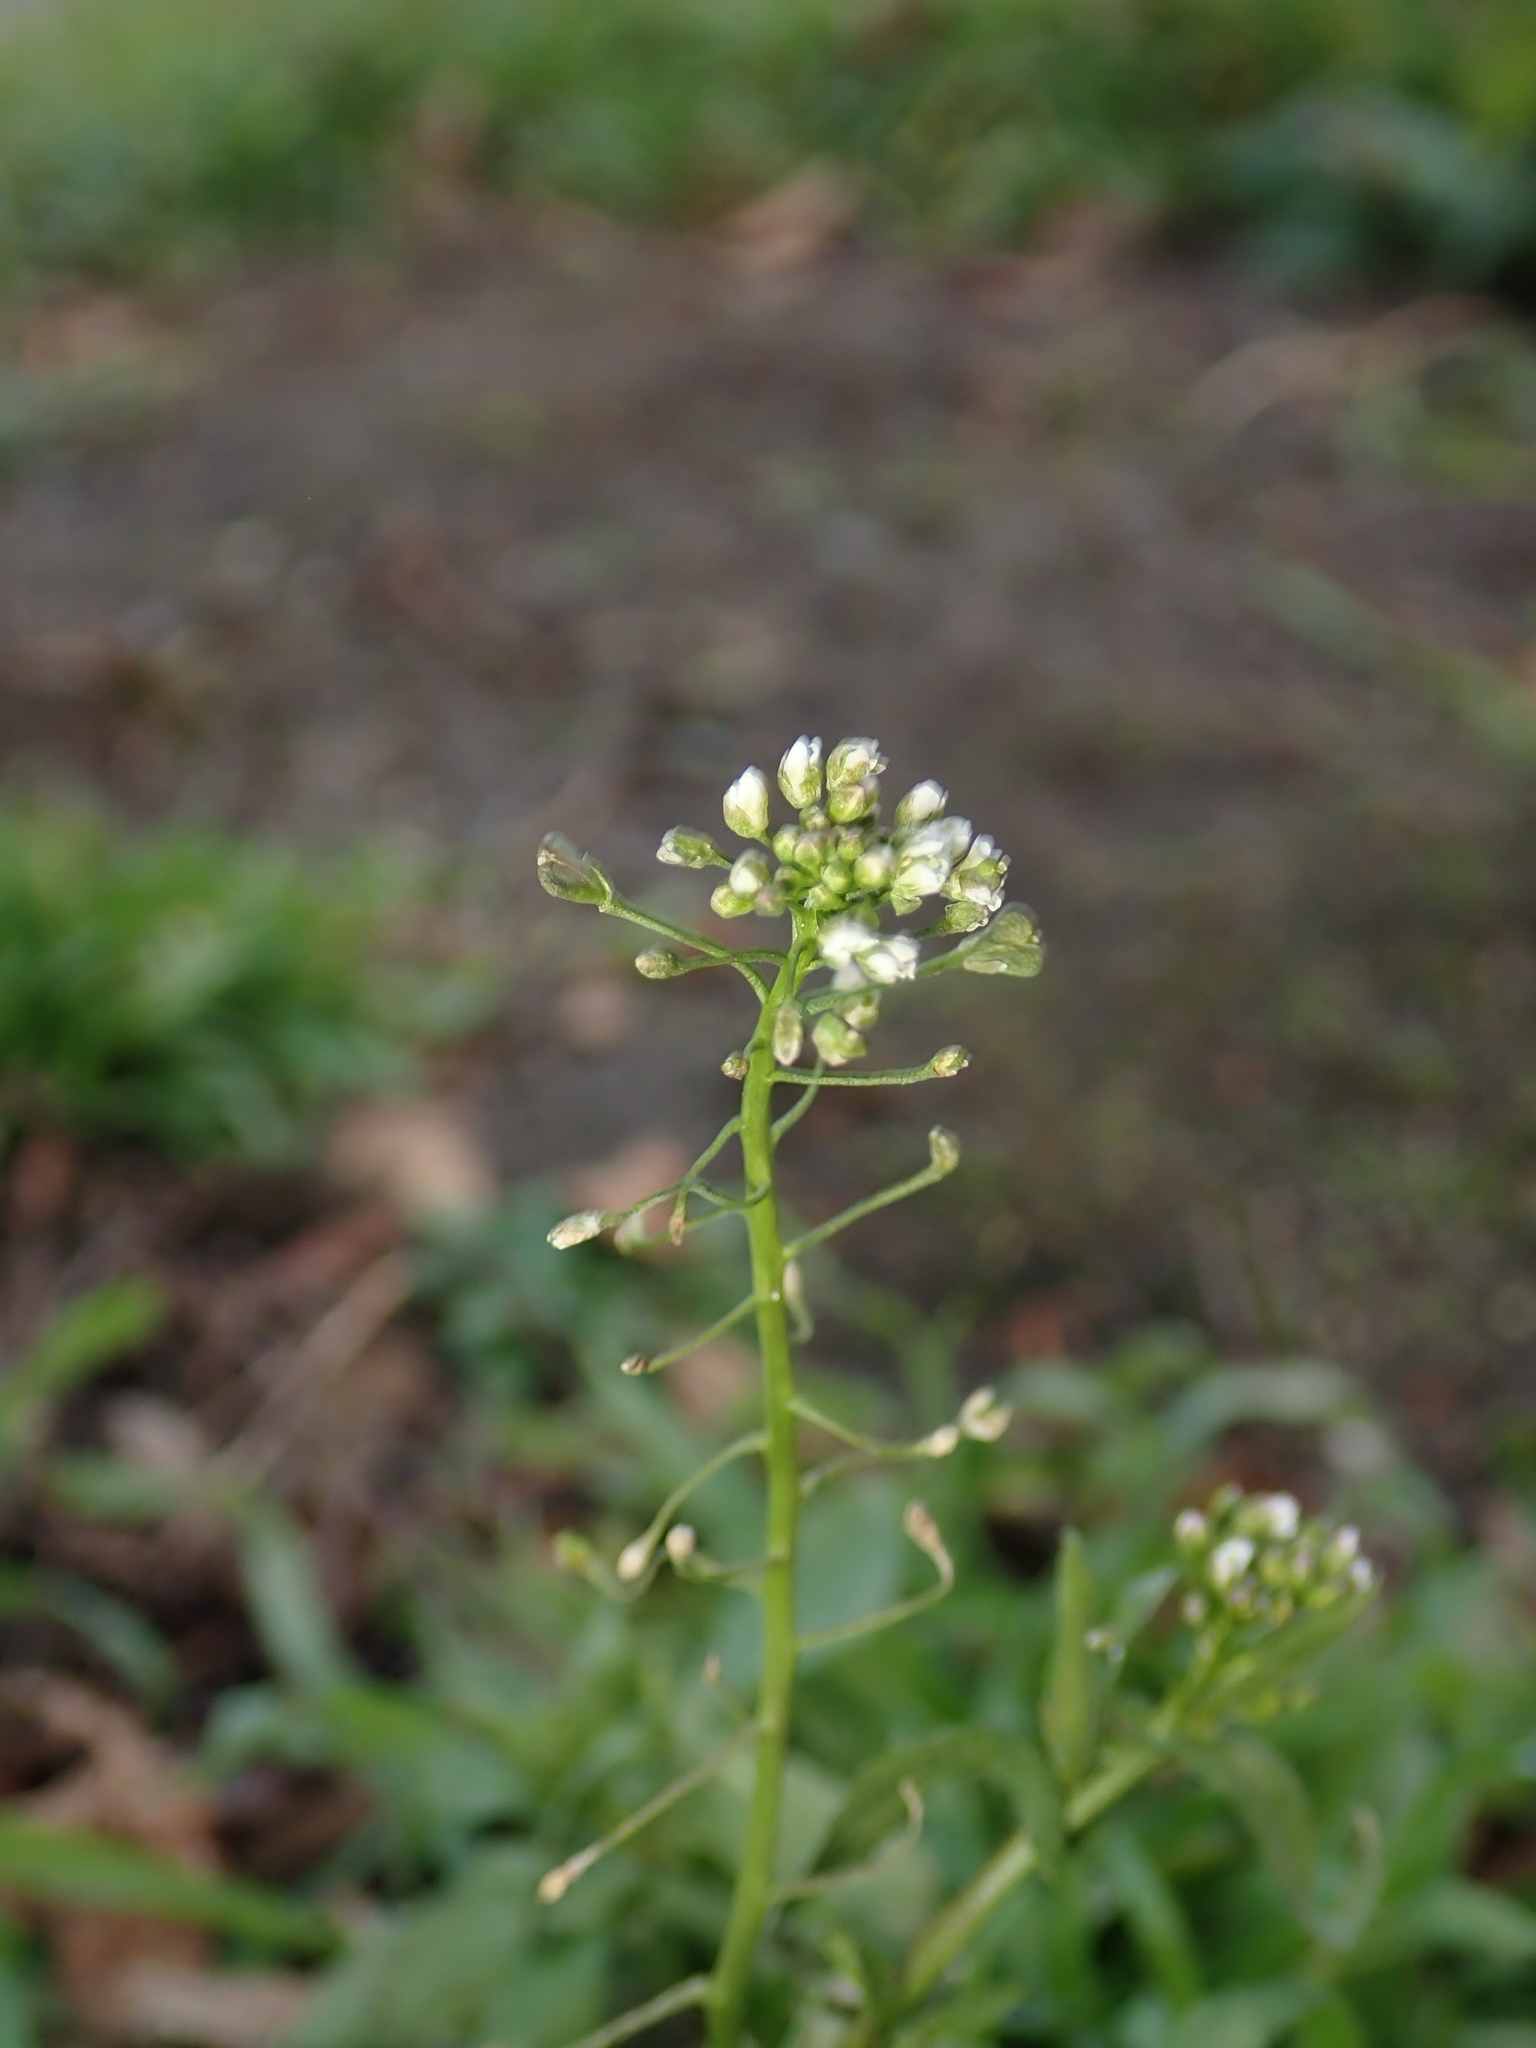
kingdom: Plantae
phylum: Tracheophyta
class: Magnoliopsida
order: Brassicales
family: Brassicaceae
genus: Capsella
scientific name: Capsella bursa-pastoris
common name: Shepherd's purse
